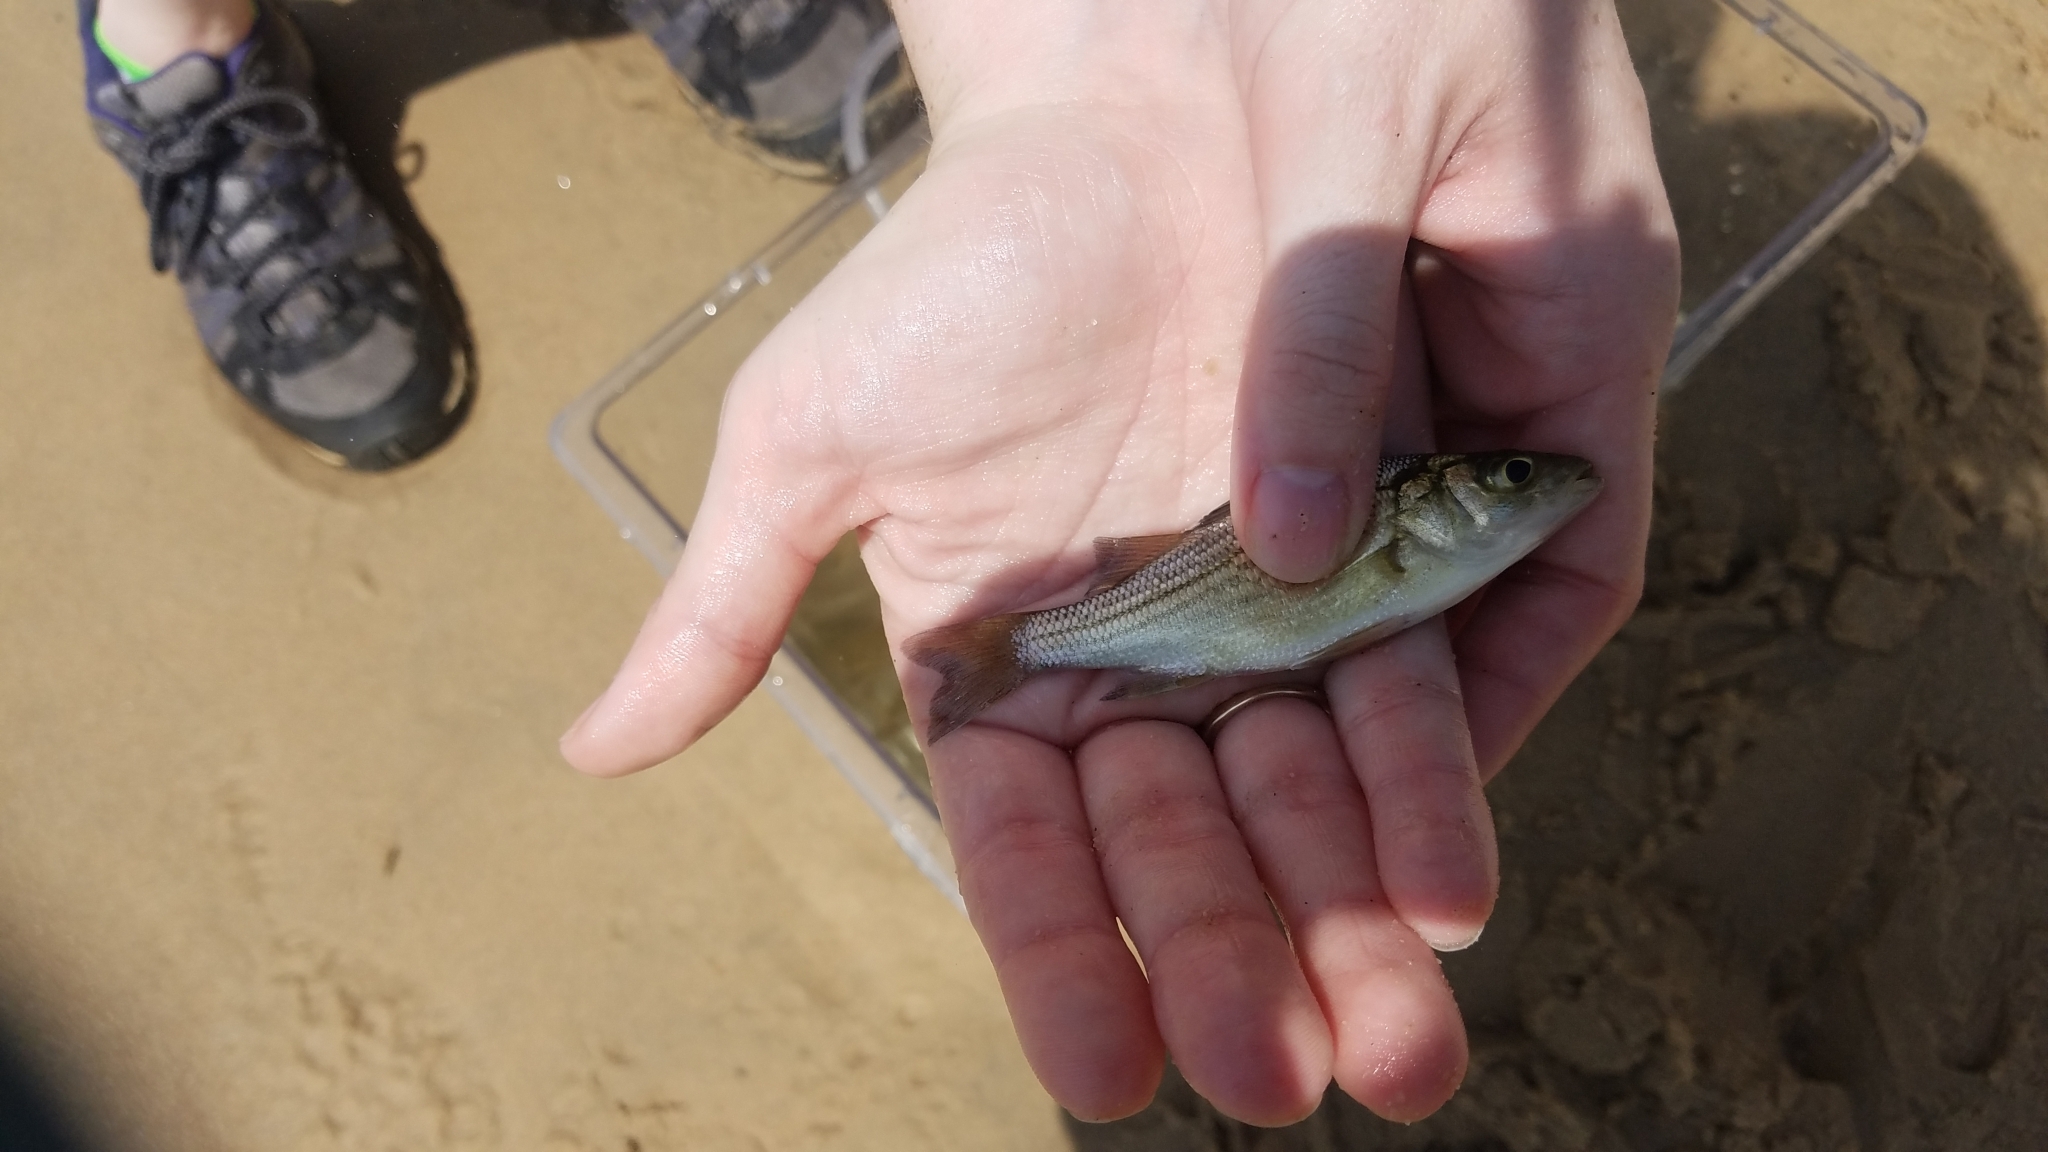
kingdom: Animalia
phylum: Chordata
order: Perciformes
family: Moronidae
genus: Morone
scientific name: Morone americana
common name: White perch
